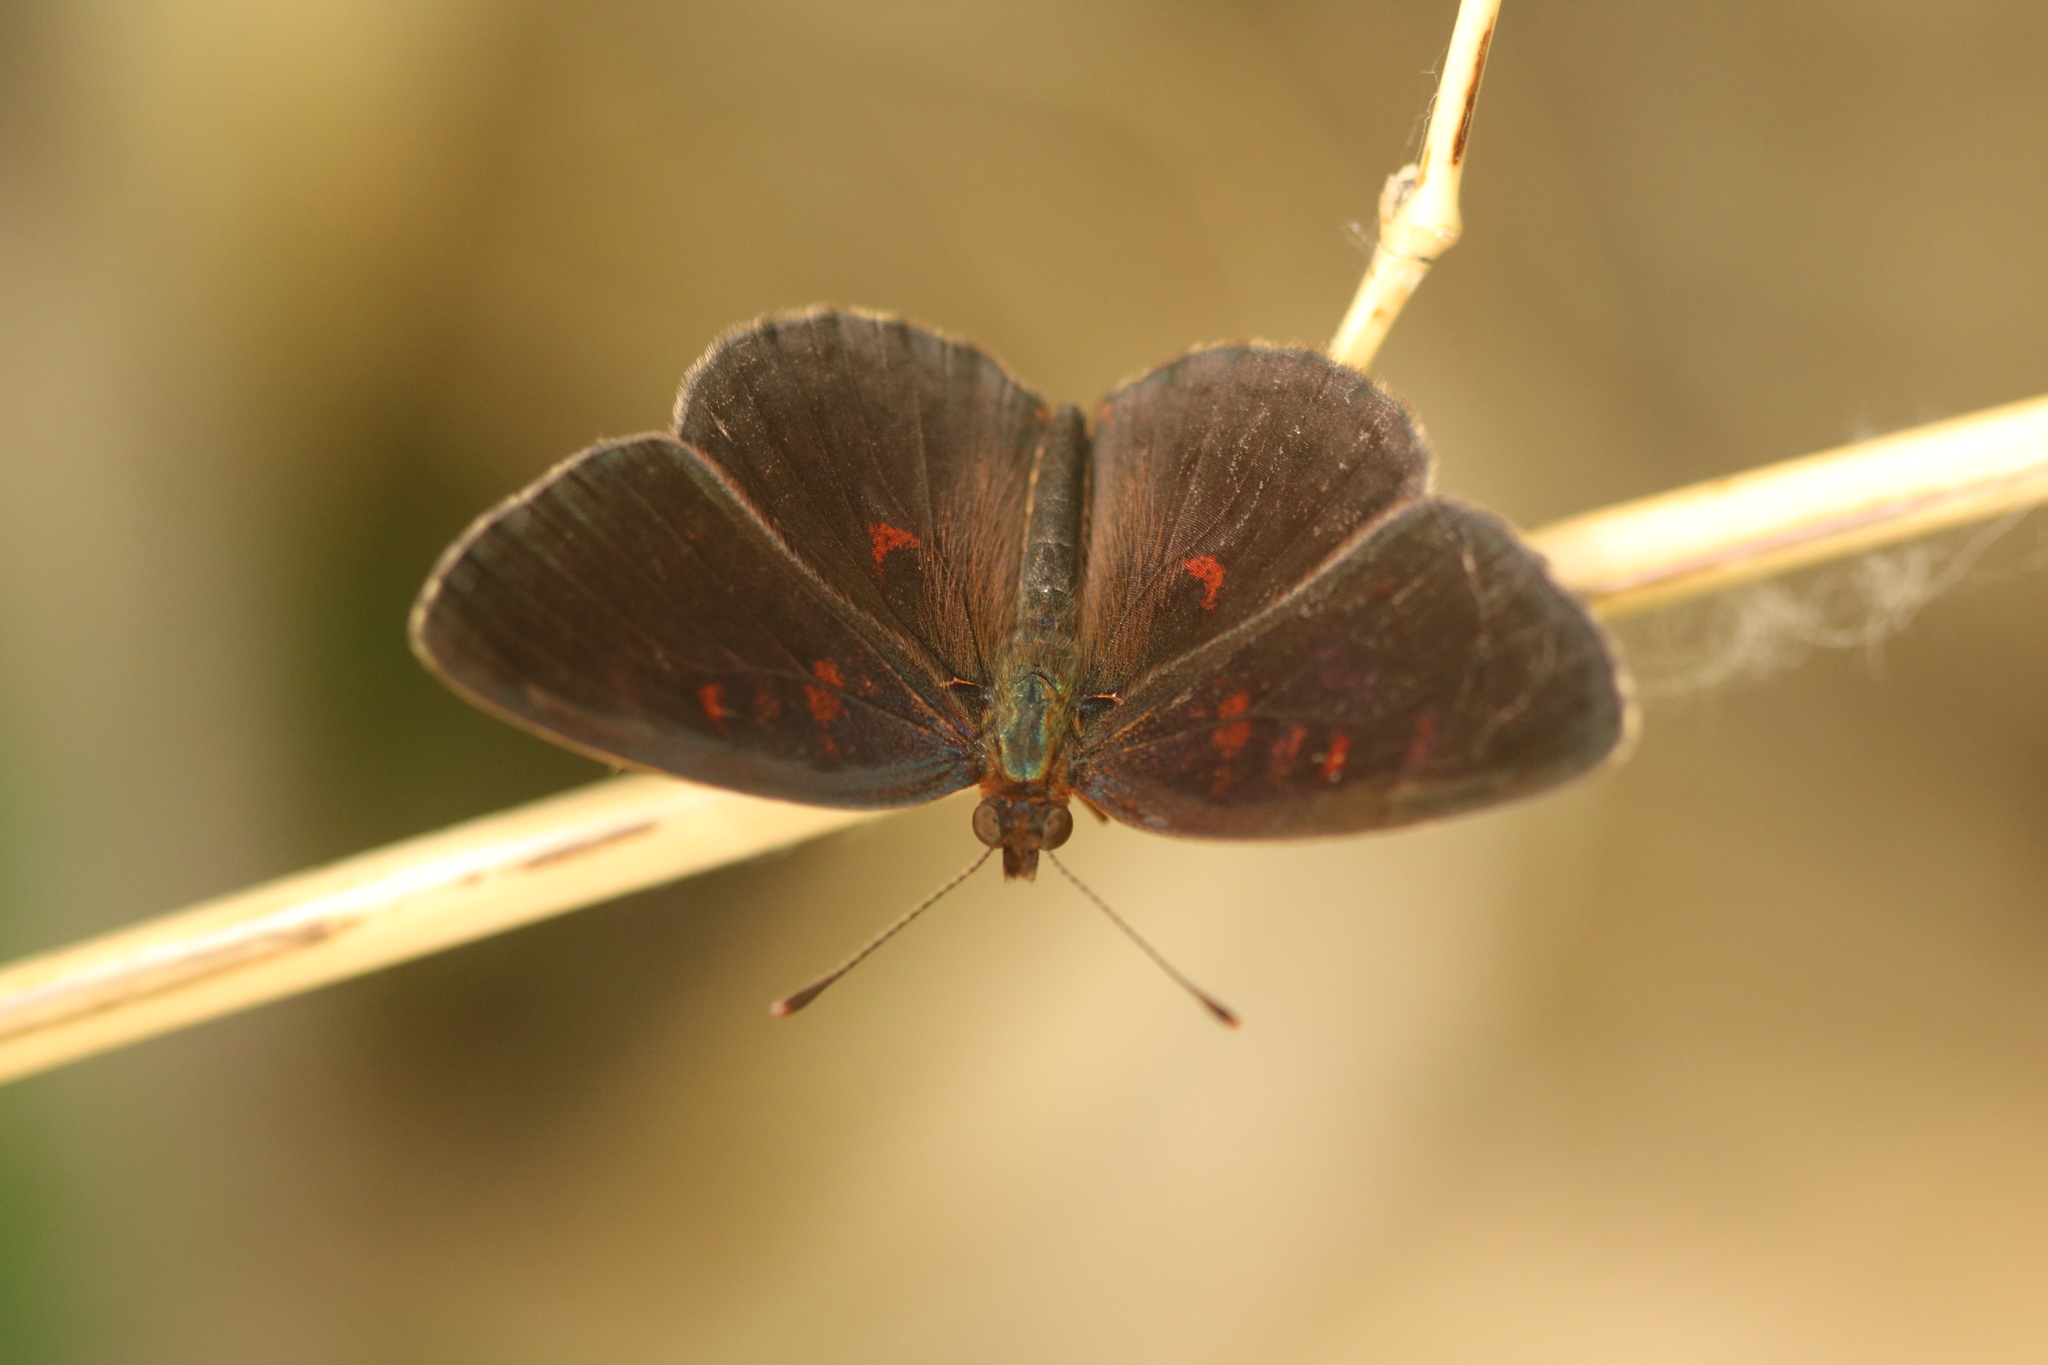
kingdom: Animalia
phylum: Arthropoda
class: Insecta
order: Lepidoptera
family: Nymphalidae
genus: Ortilia
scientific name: Ortilia velica
